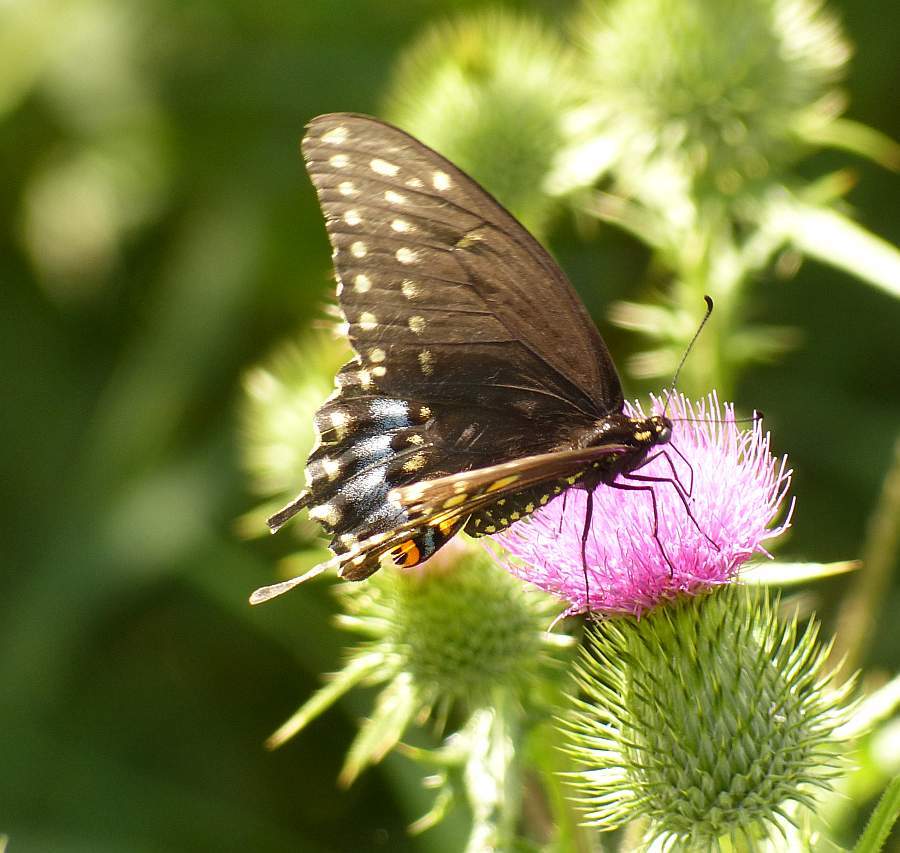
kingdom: Animalia
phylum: Arthropoda
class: Insecta
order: Lepidoptera
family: Papilionidae
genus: Papilio
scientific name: Papilio polyxenes
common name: Black swallowtail
